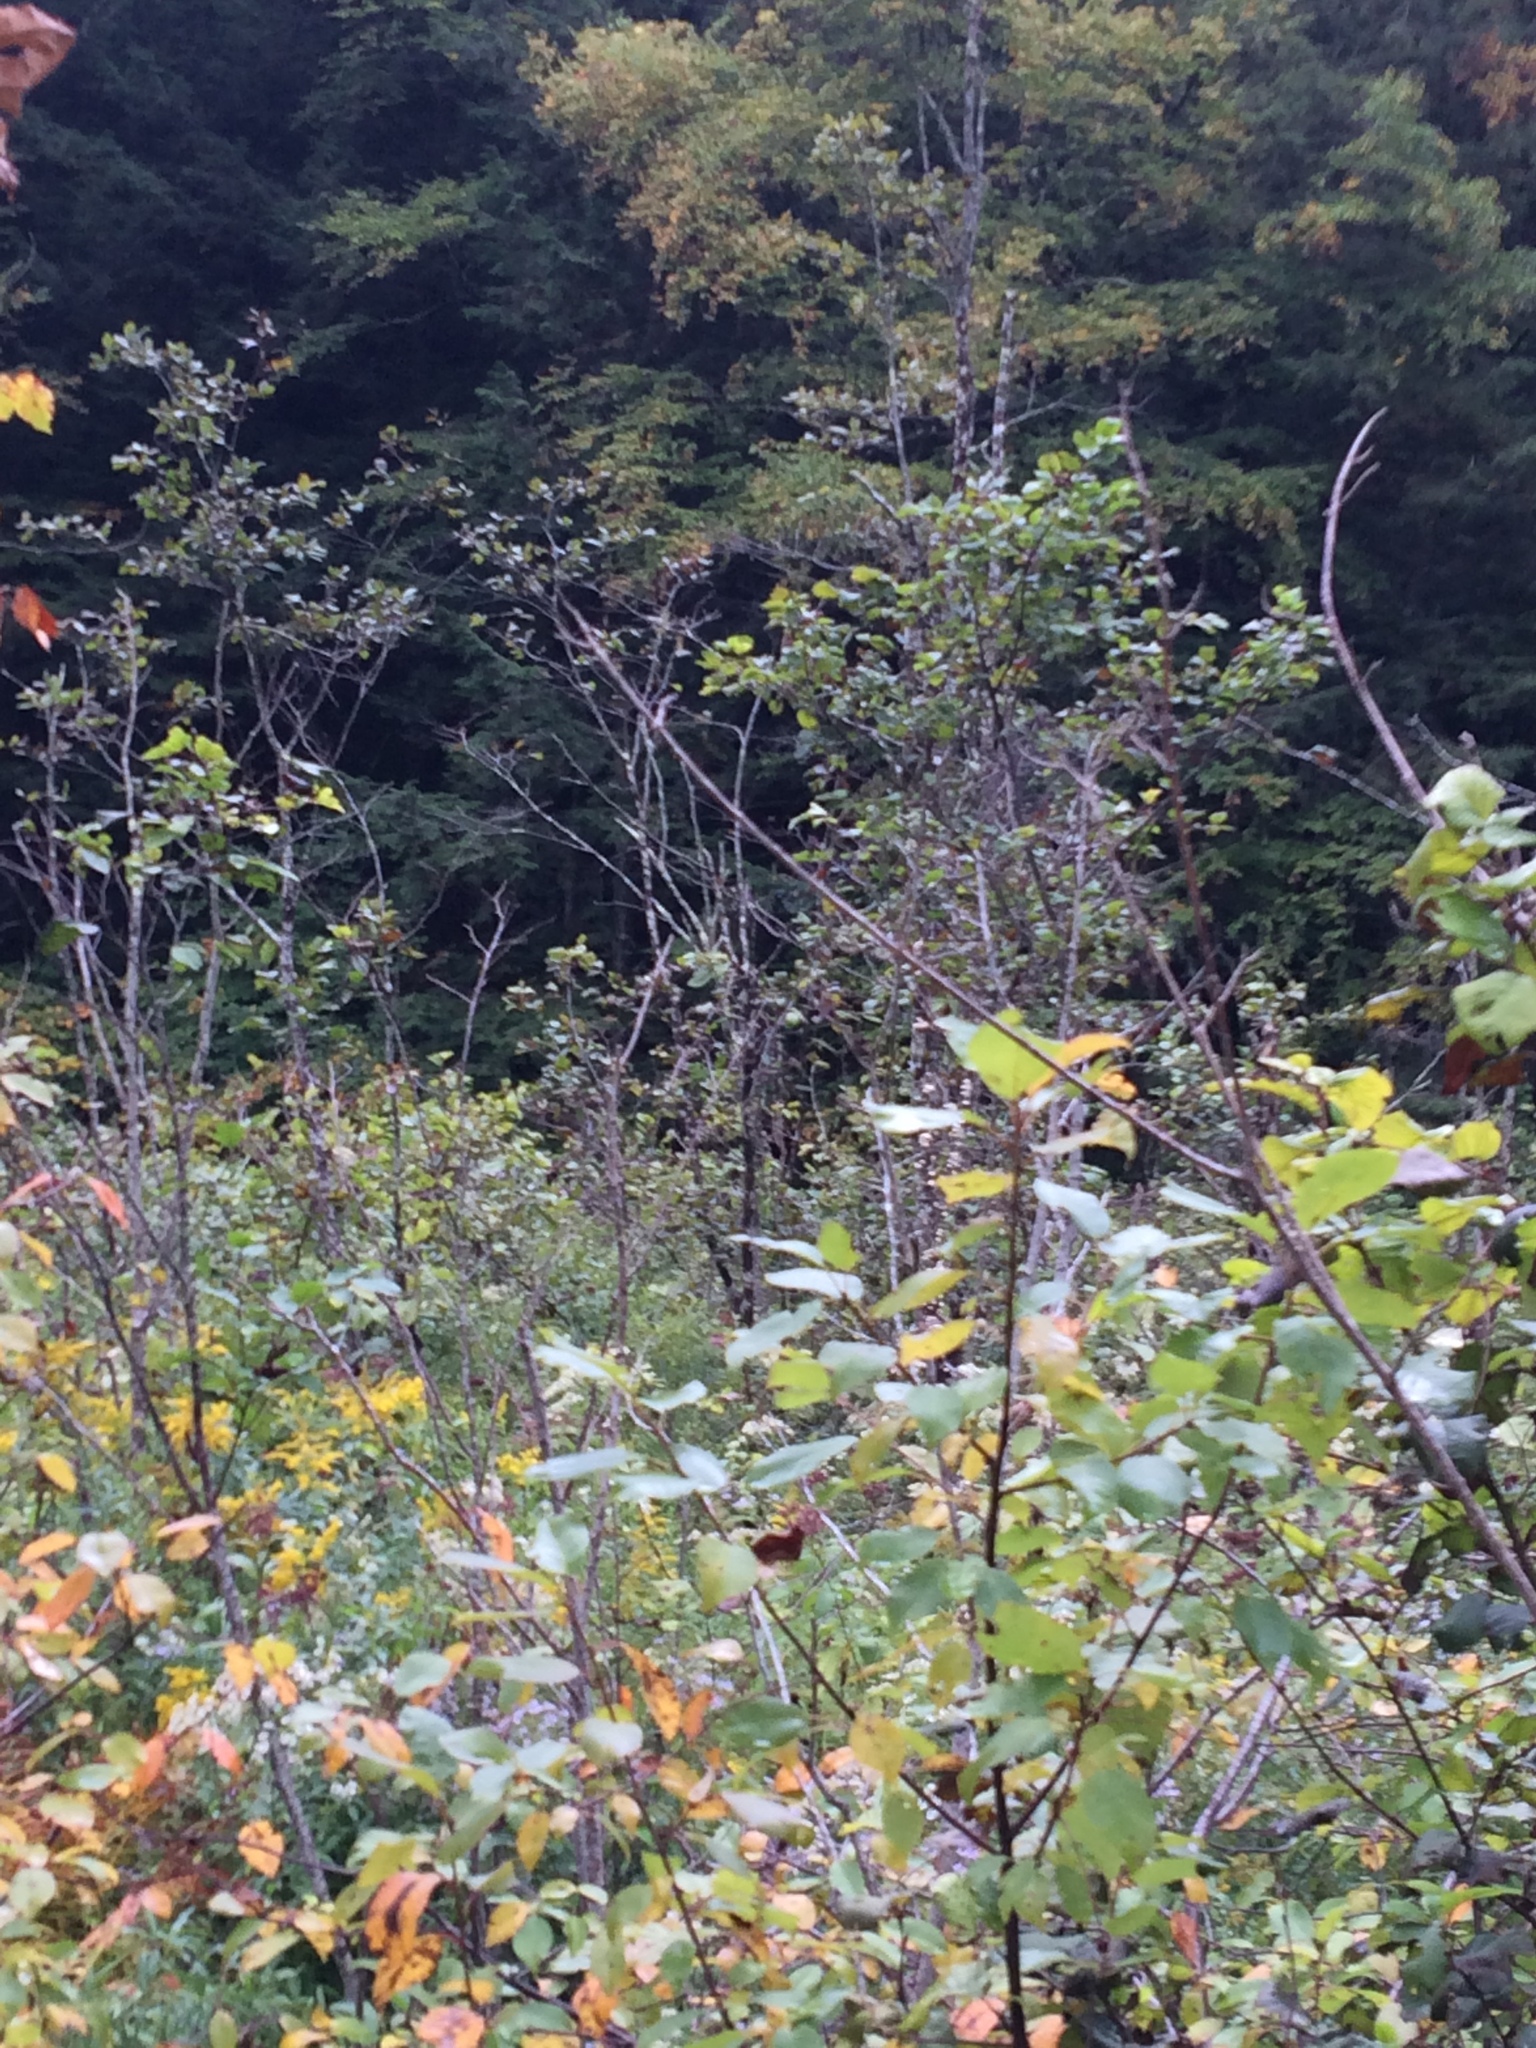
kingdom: Plantae
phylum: Tracheophyta
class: Magnoliopsida
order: Fagales
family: Betulaceae
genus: Alnus
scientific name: Alnus incana
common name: Grey alder
